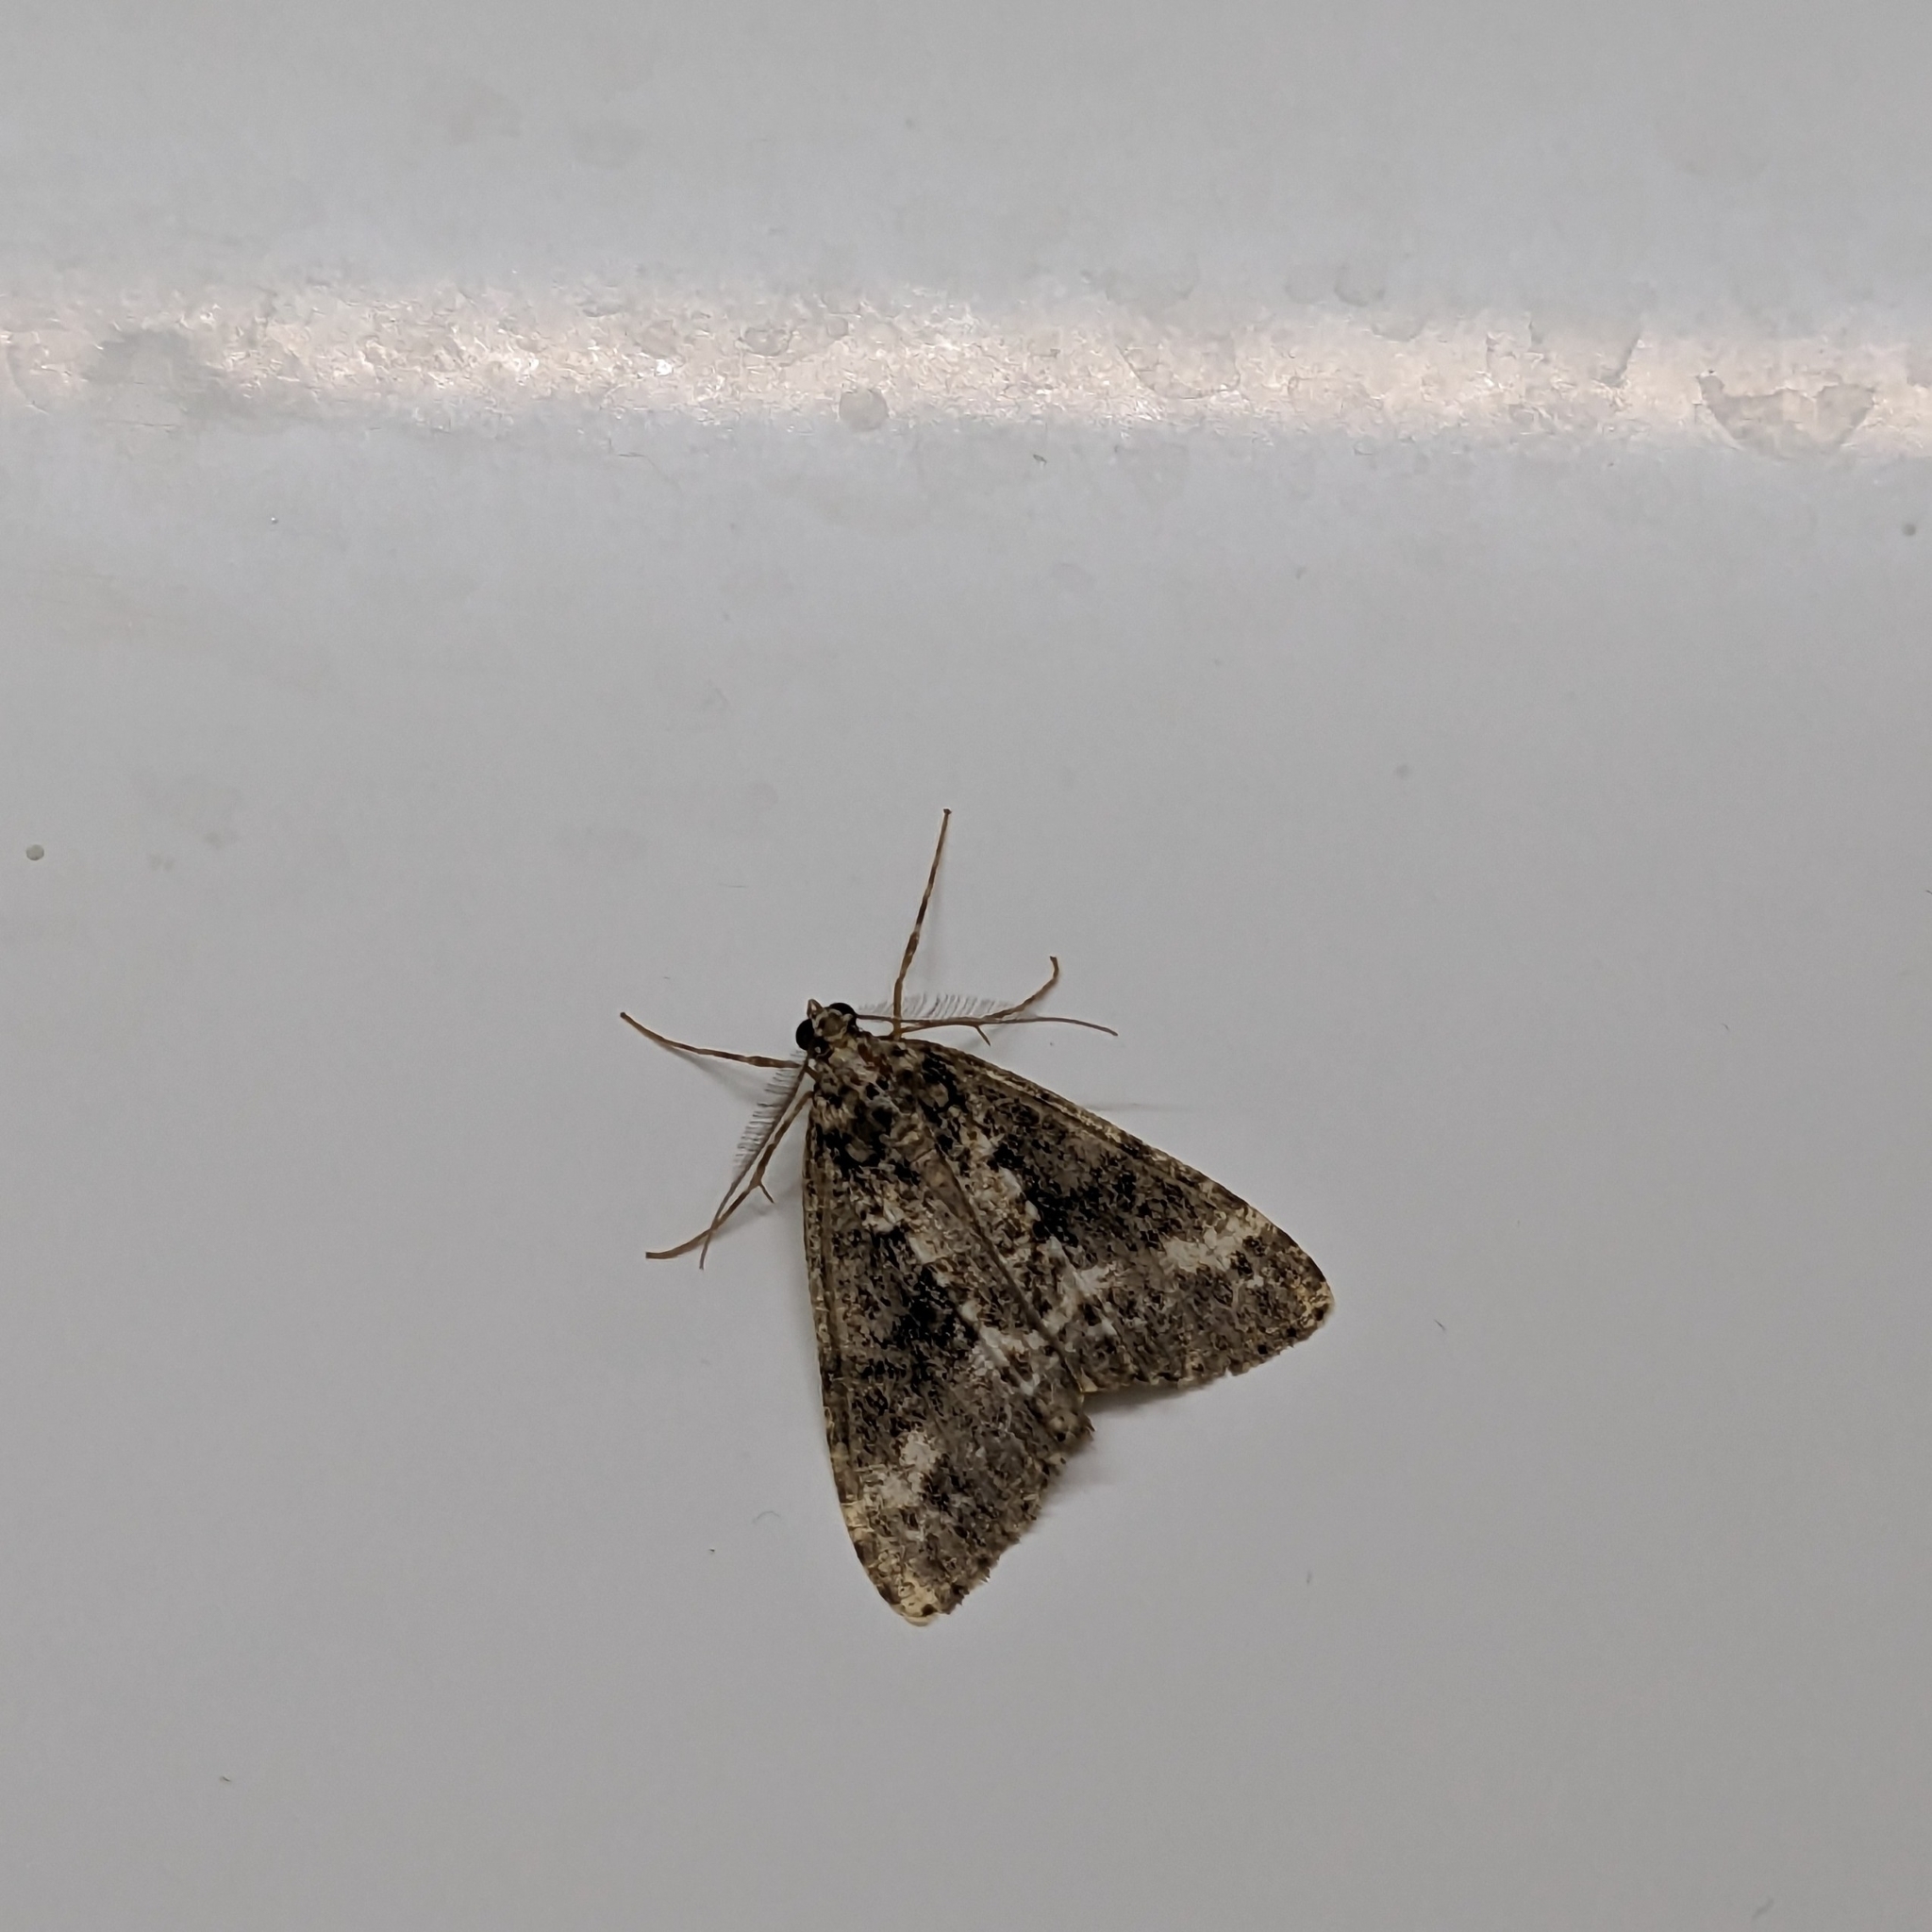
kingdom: Animalia
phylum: Arthropoda
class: Insecta
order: Lepidoptera
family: Geometridae
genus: Pseudocoremia
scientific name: Pseudocoremia leucelaea
